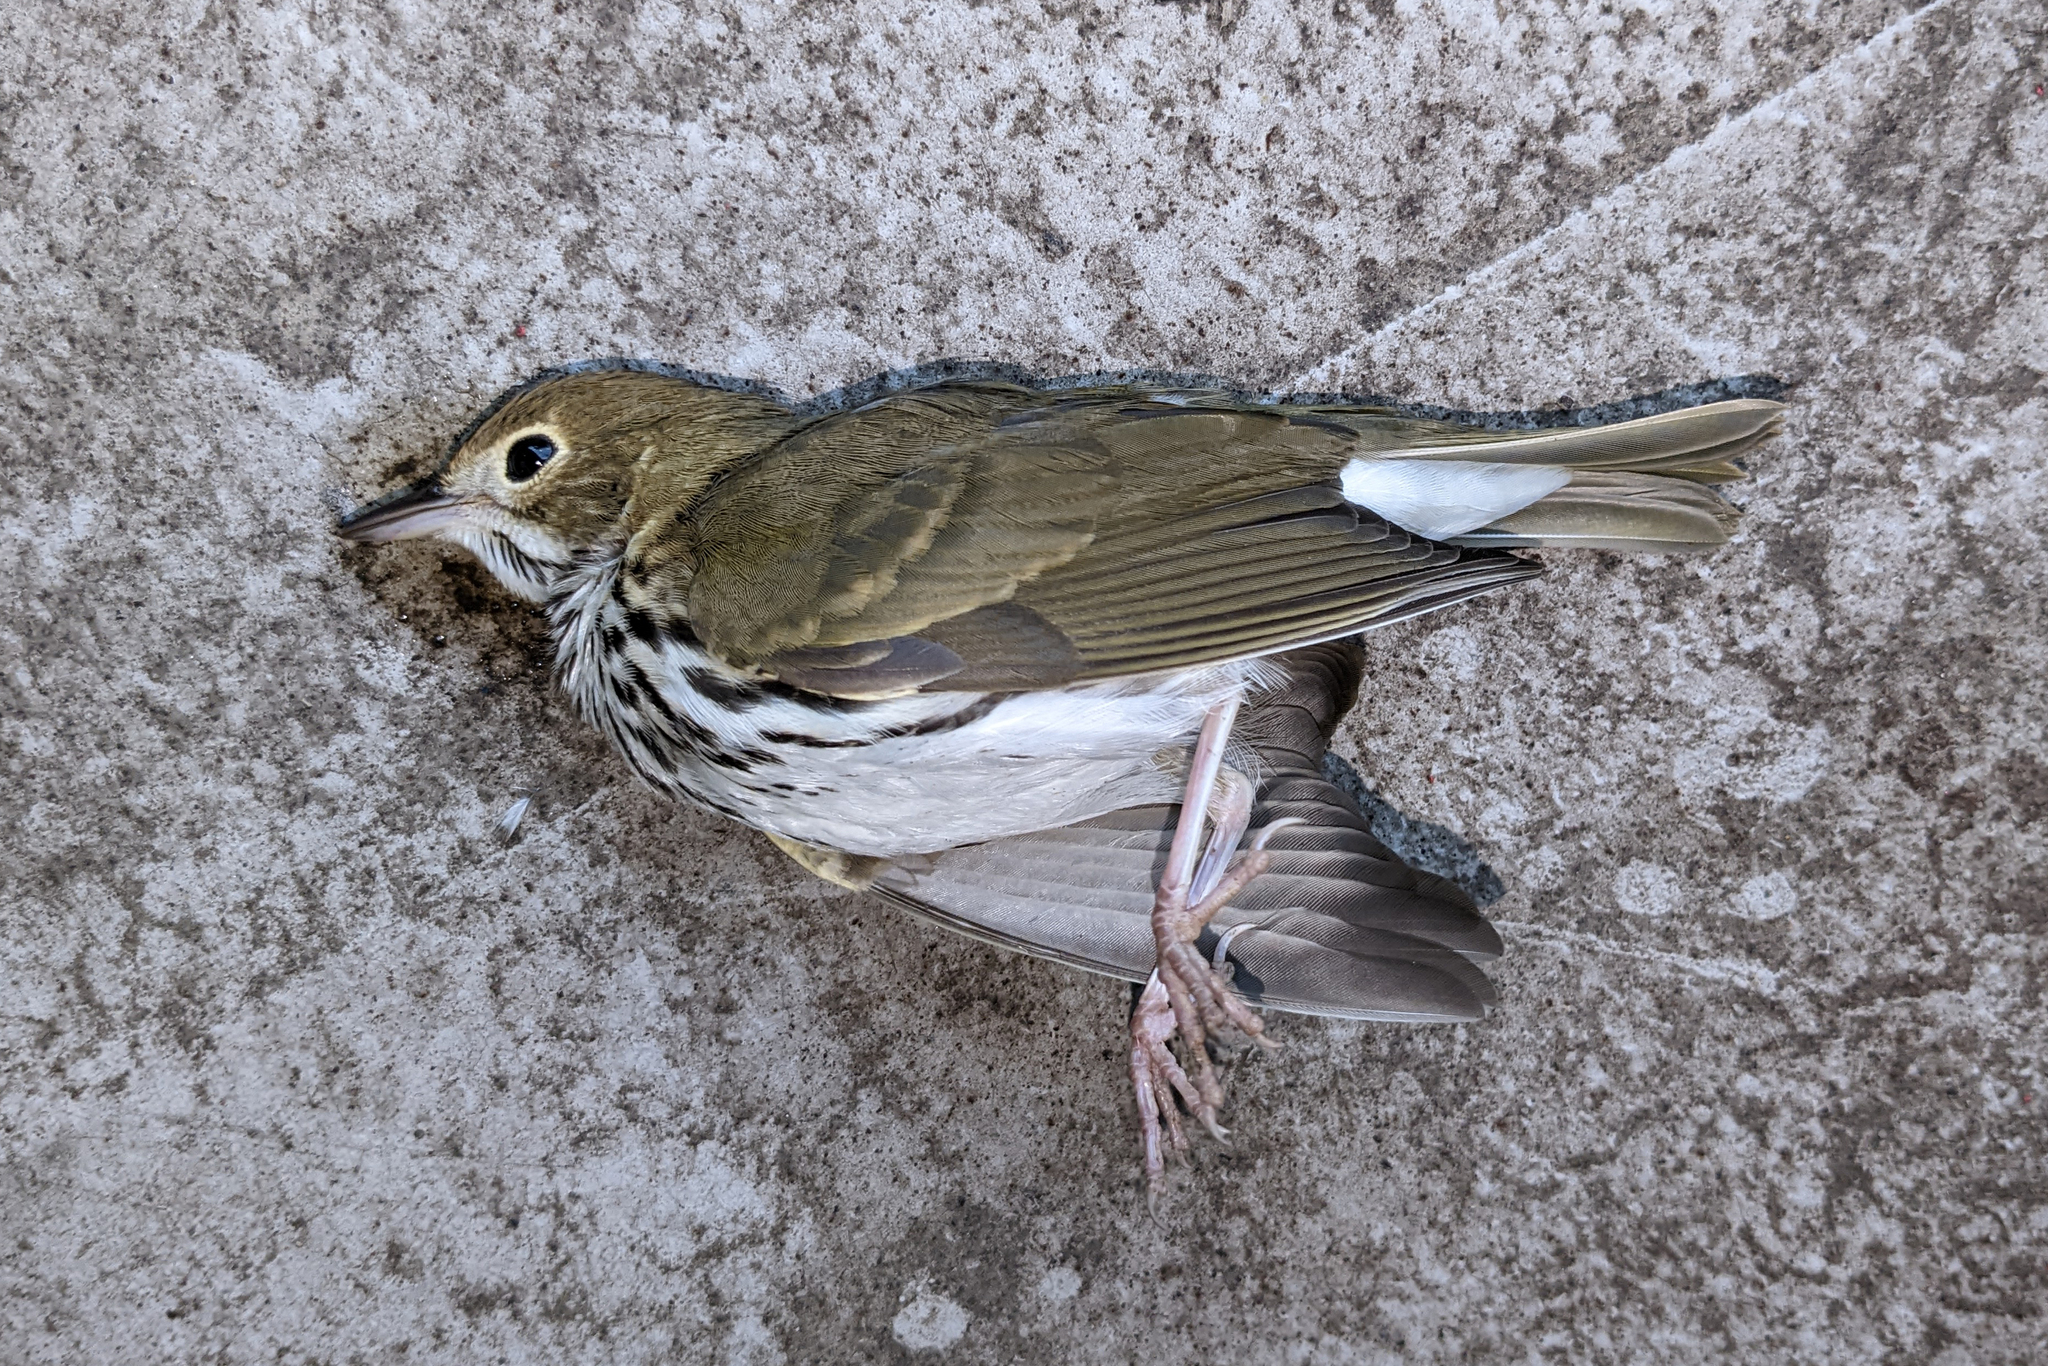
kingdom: Animalia
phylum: Chordata
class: Aves
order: Passeriformes
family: Parulidae
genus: Seiurus
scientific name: Seiurus aurocapilla
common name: Ovenbird
